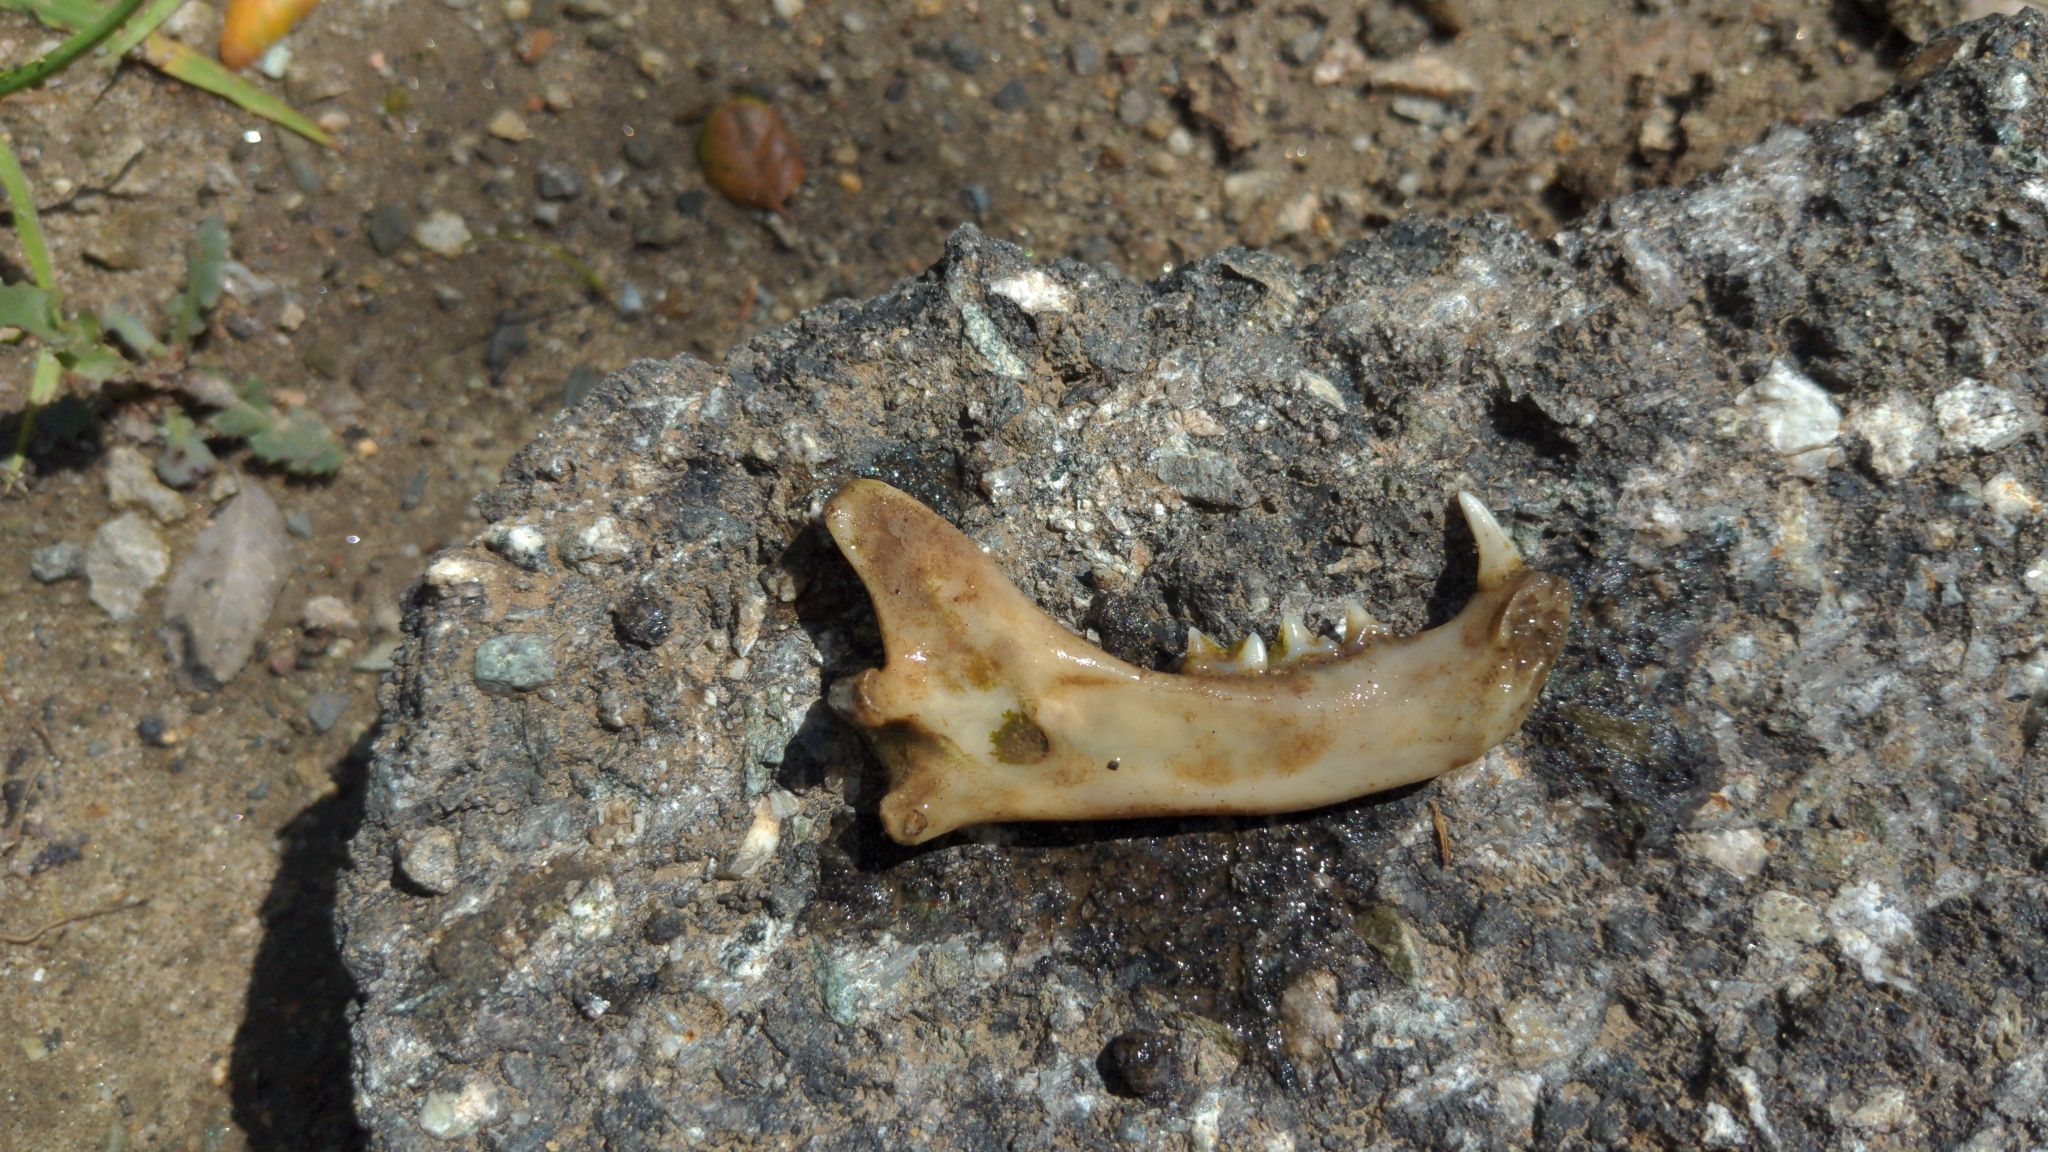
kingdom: Animalia
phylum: Chordata
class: Mammalia
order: Carnivora
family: Felidae
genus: Felis
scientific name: Felis catus
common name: Domestic cat
